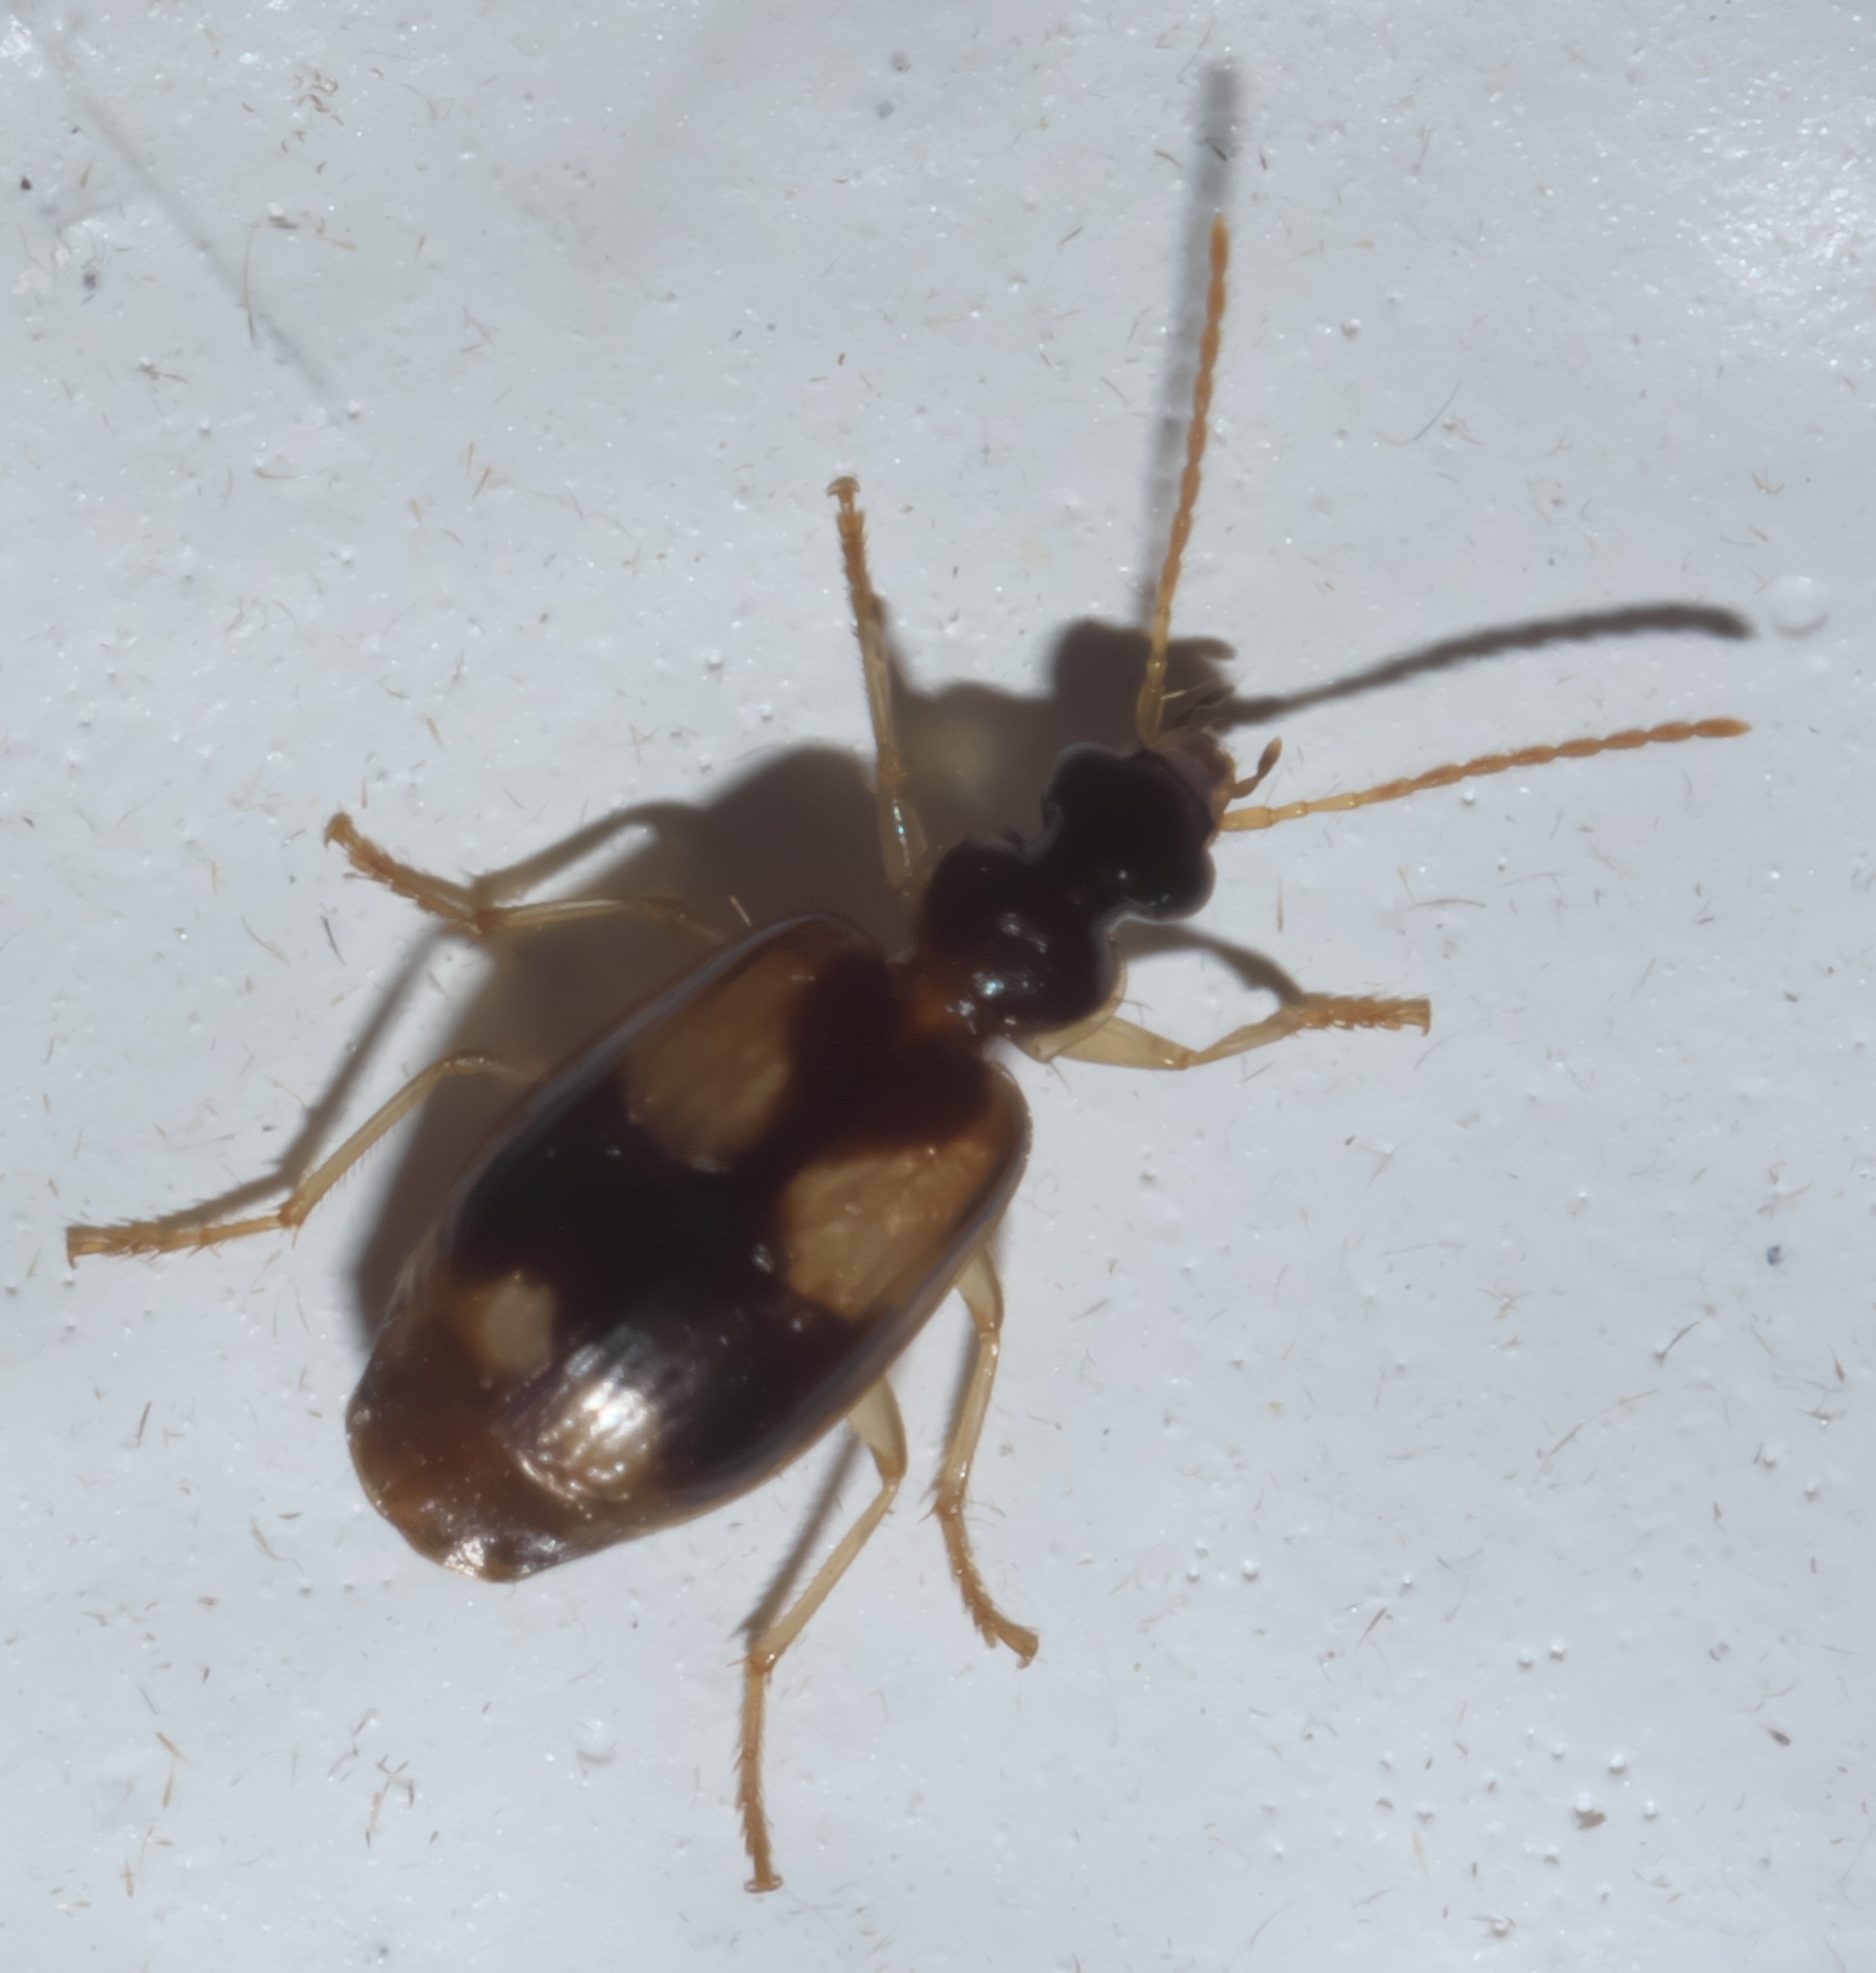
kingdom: Animalia
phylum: Arthropoda
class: Insecta
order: Coleoptera
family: Carabidae
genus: Lebia
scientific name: Lebia ornata
